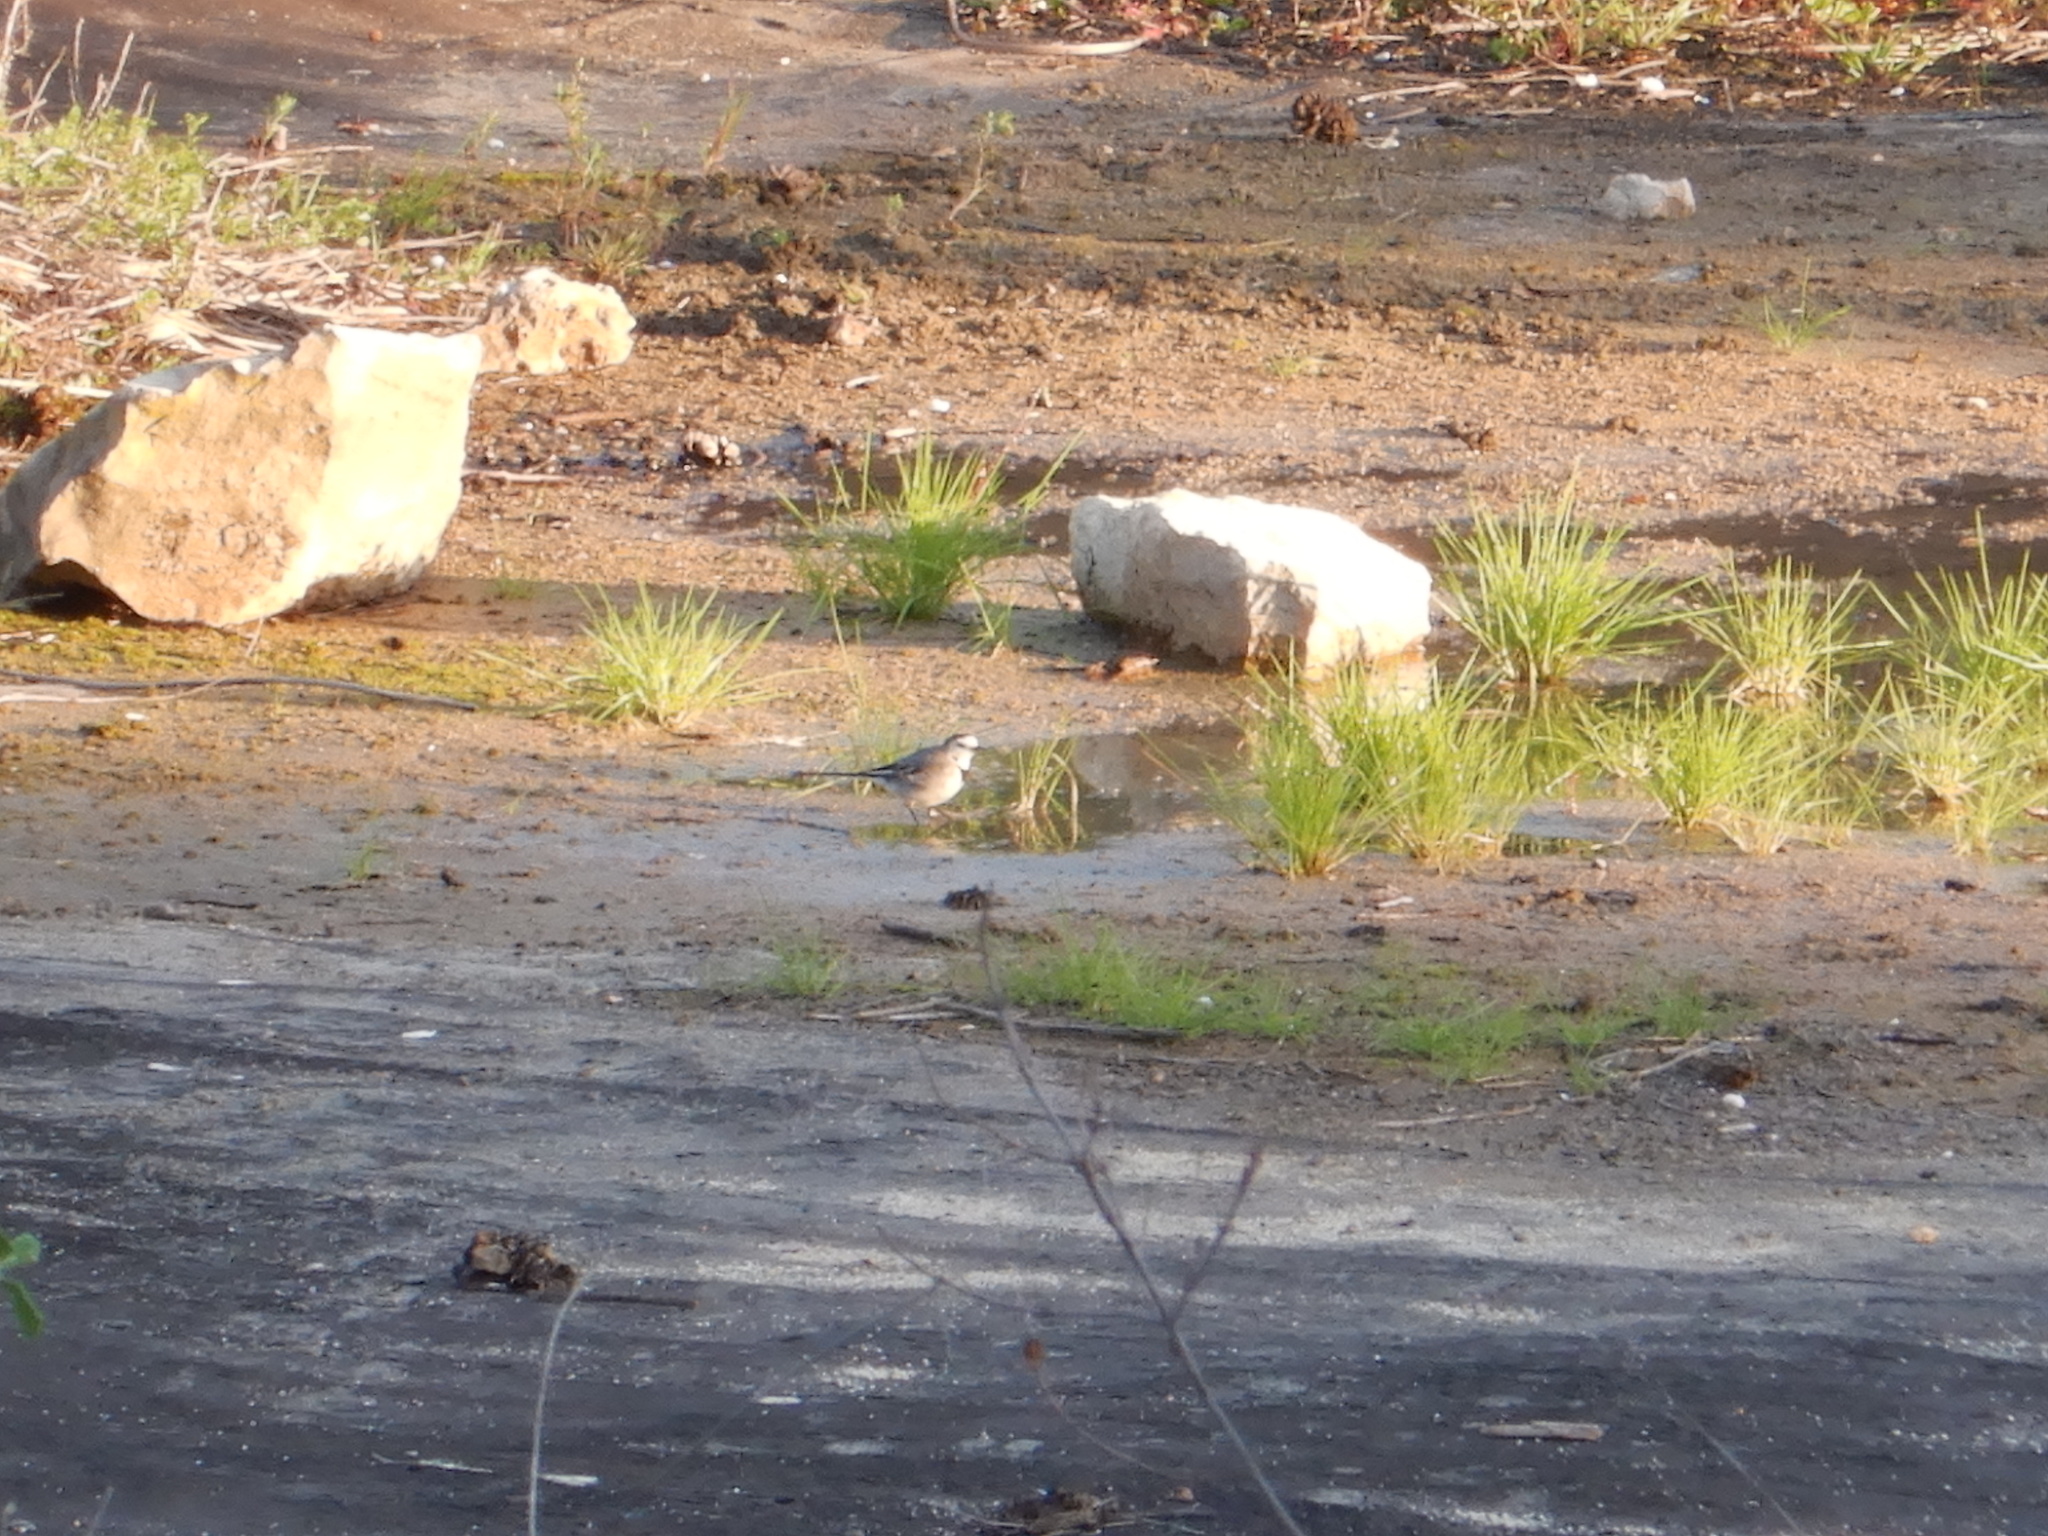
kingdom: Animalia
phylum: Chordata
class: Aves
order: Passeriformes
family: Motacillidae
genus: Motacilla
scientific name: Motacilla alba
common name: White wagtail
